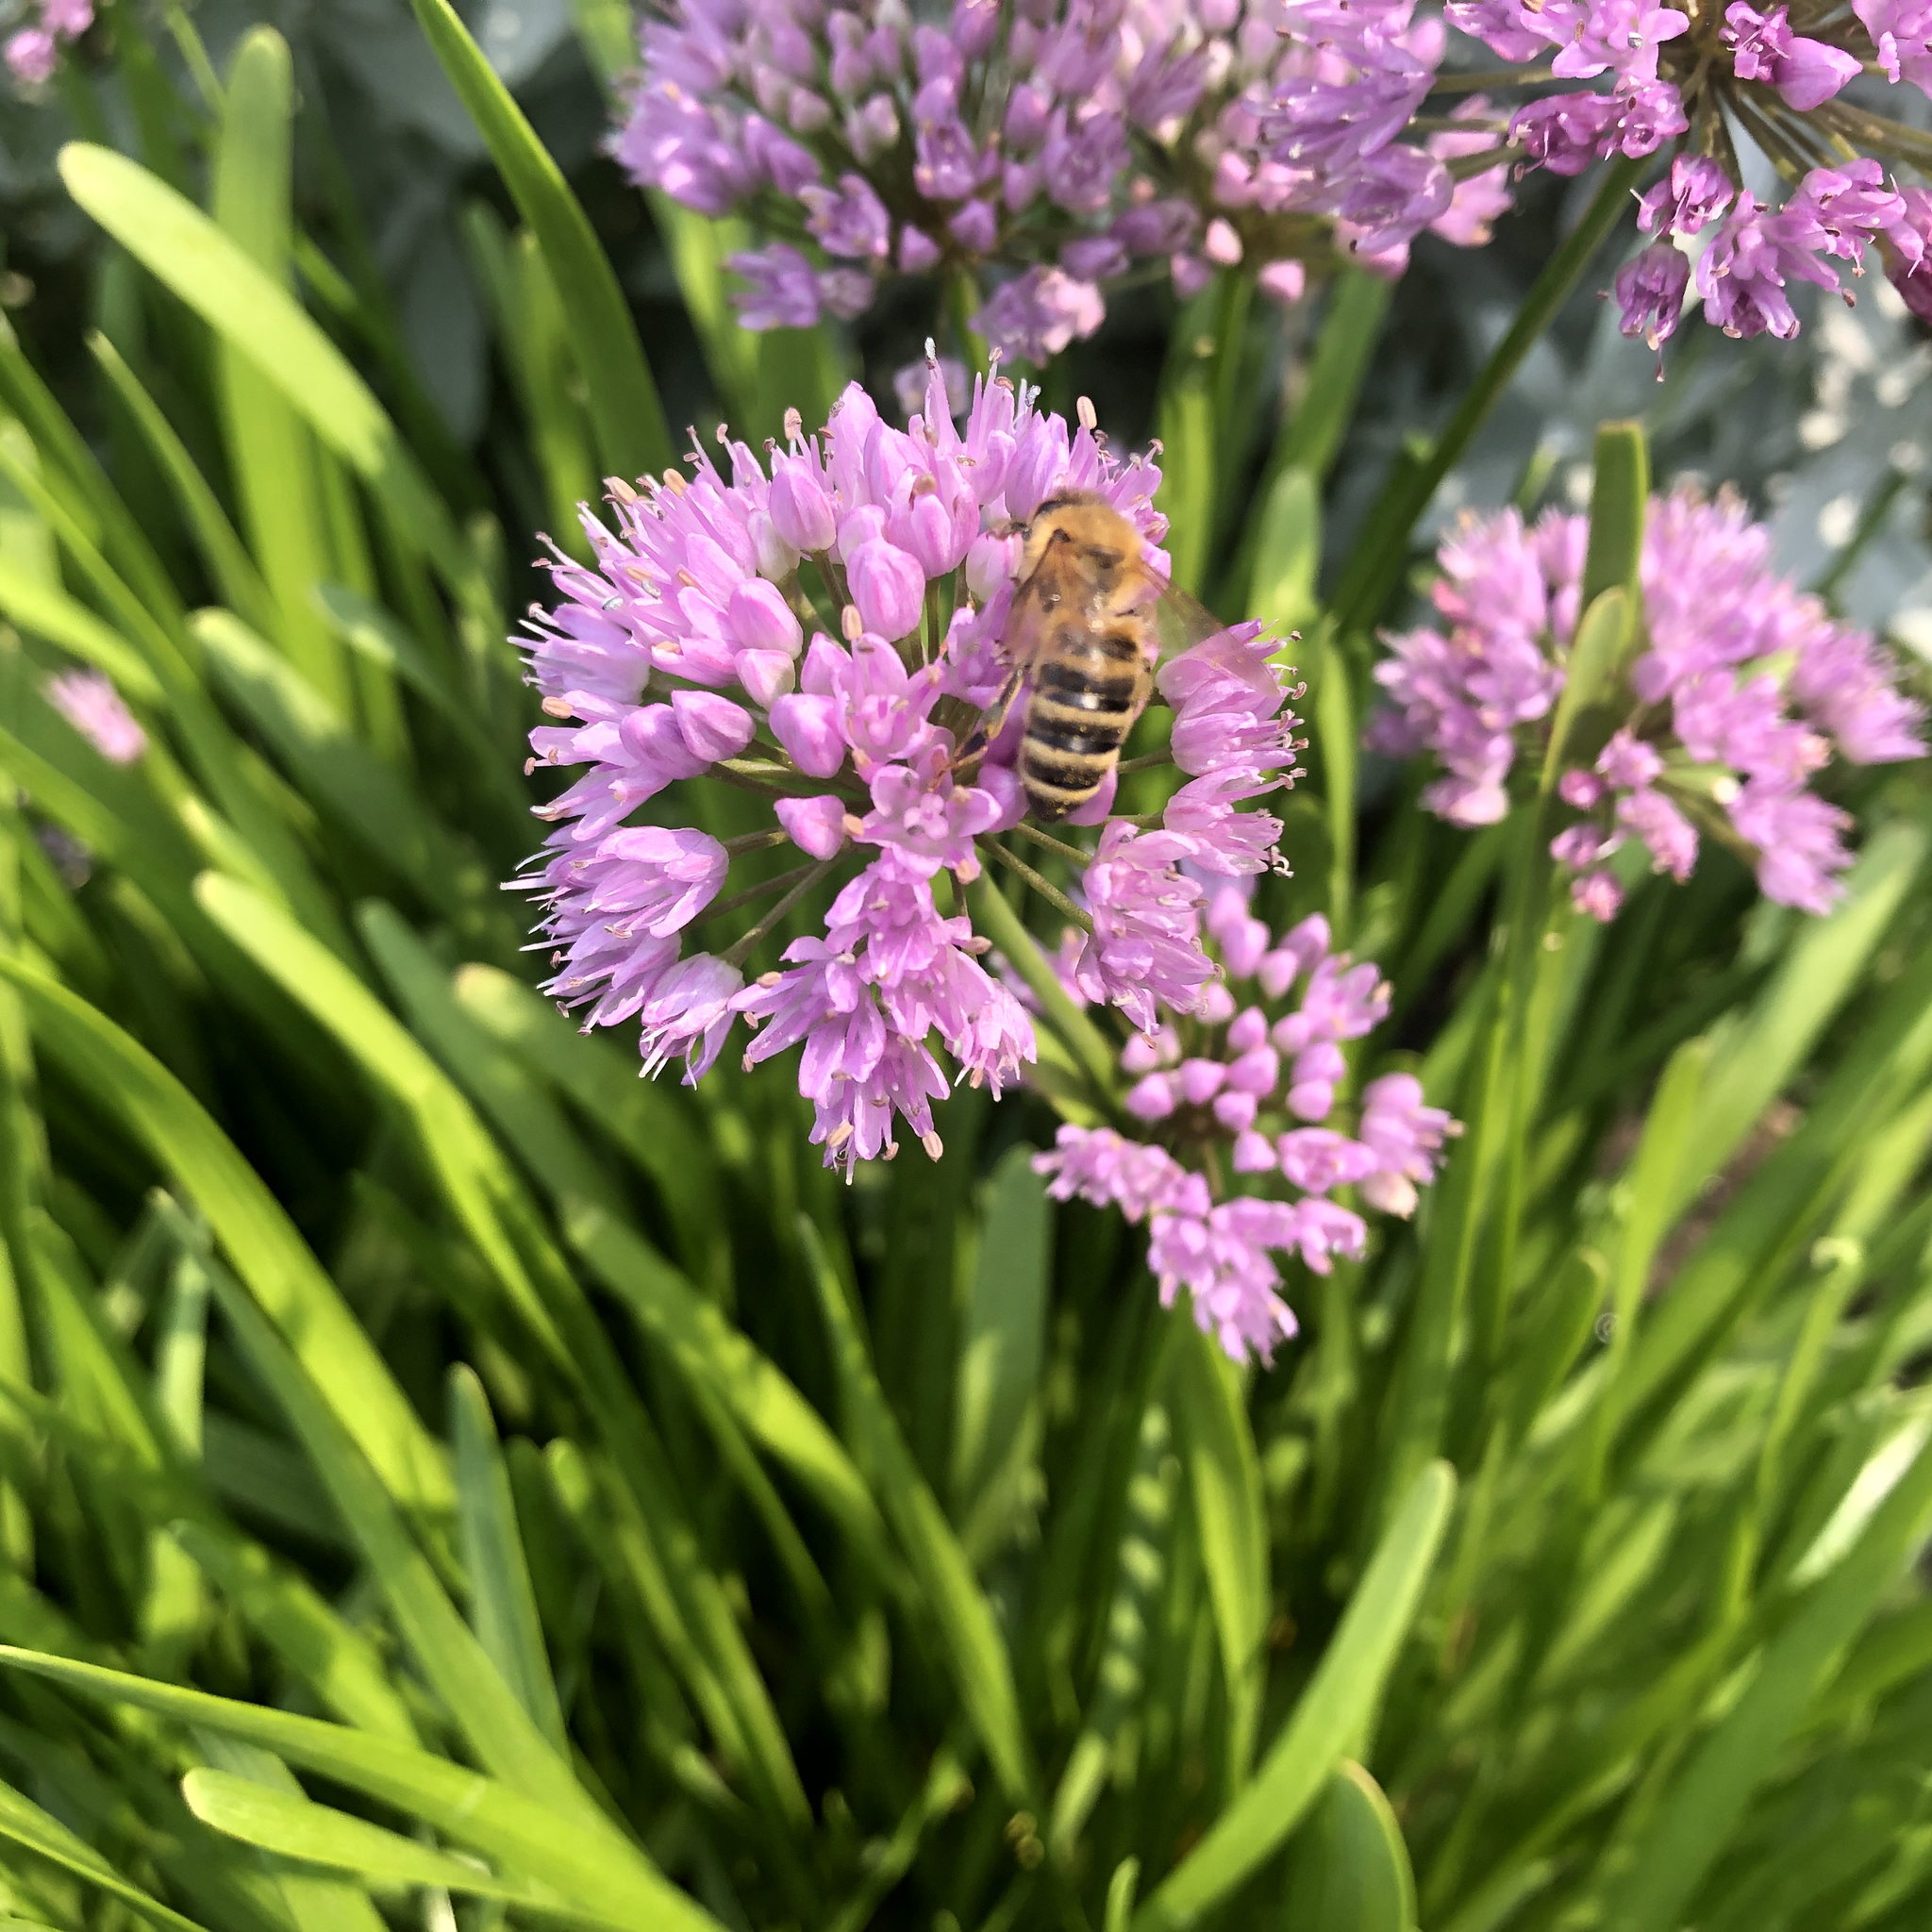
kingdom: Animalia
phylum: Arthropoda
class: Insecta
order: Hymenoptera
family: Apidae
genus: Apis
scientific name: Apis mellifera
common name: Honey bee
